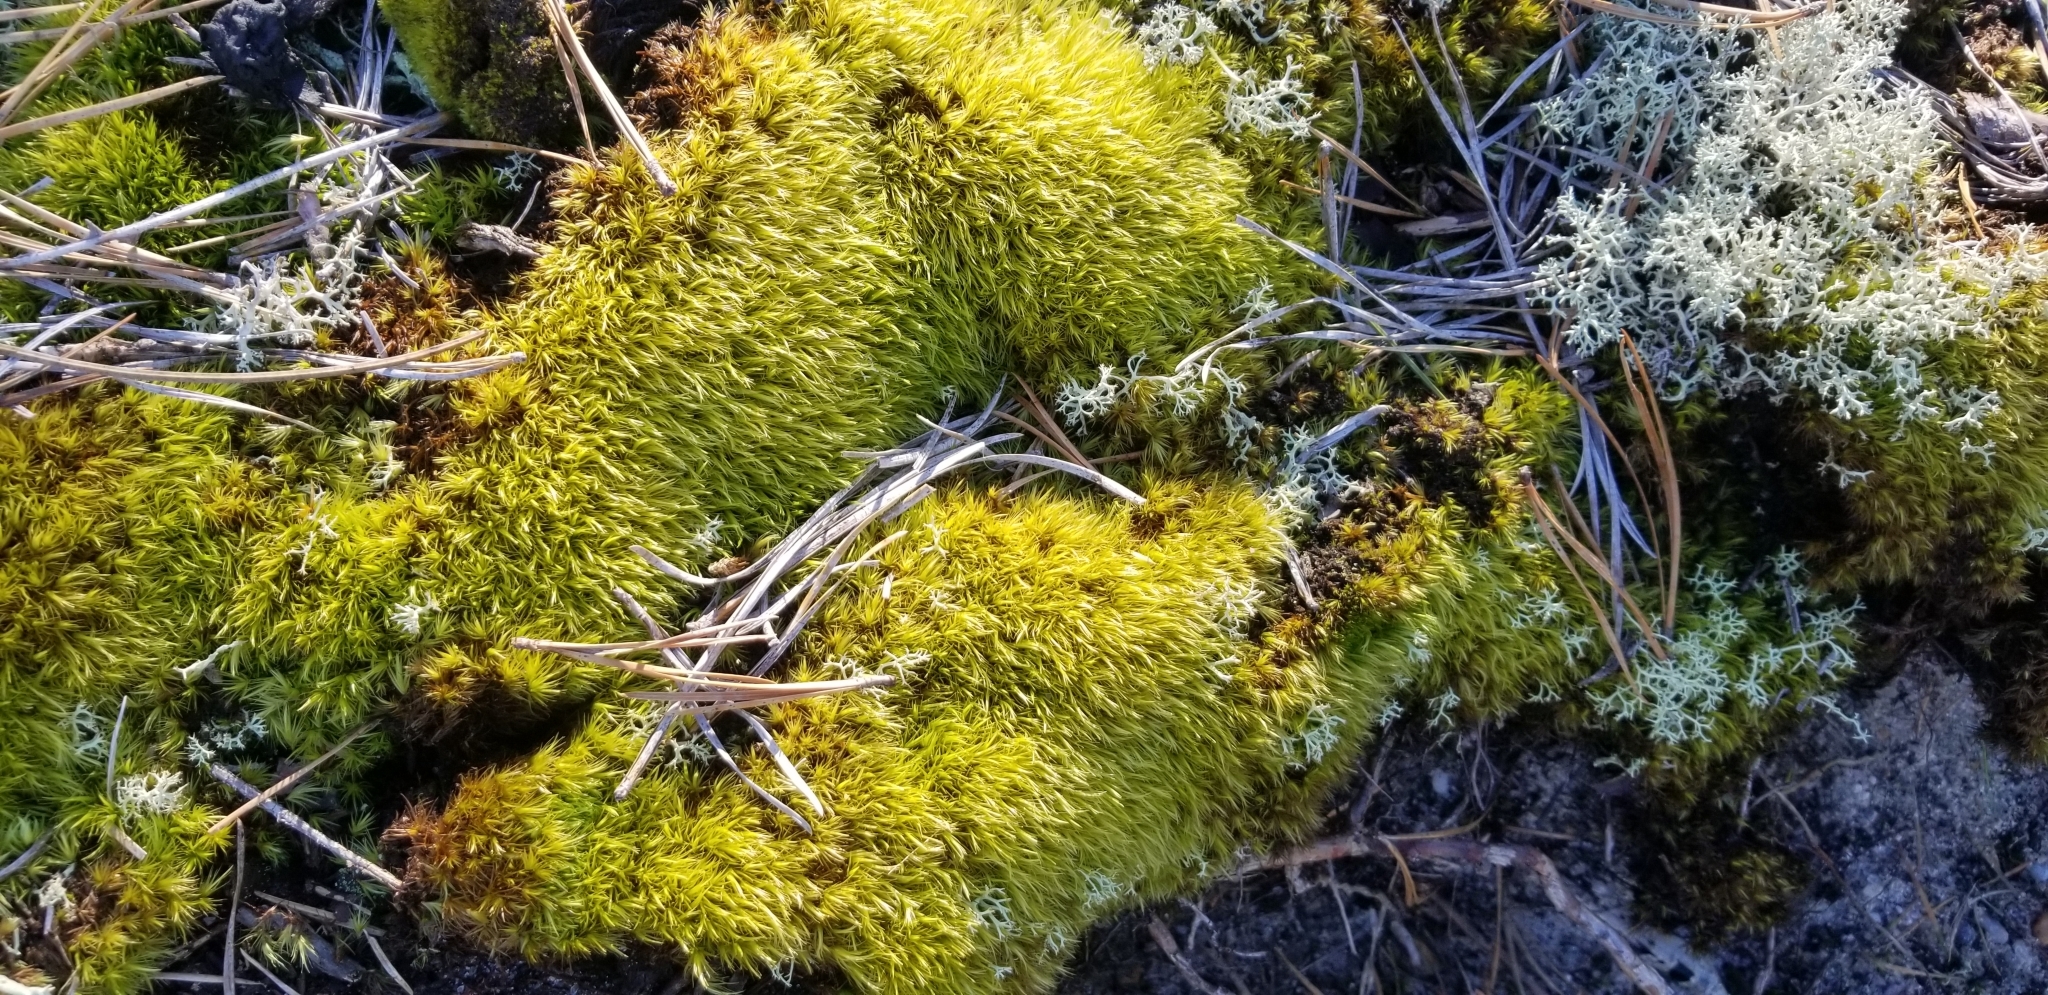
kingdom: Plantae
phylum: Bryophyta
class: Bryopsida
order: Dicranales
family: Dicranaceae
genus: Dicranum
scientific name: Dicranum scoparium
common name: Broom fork-moss
